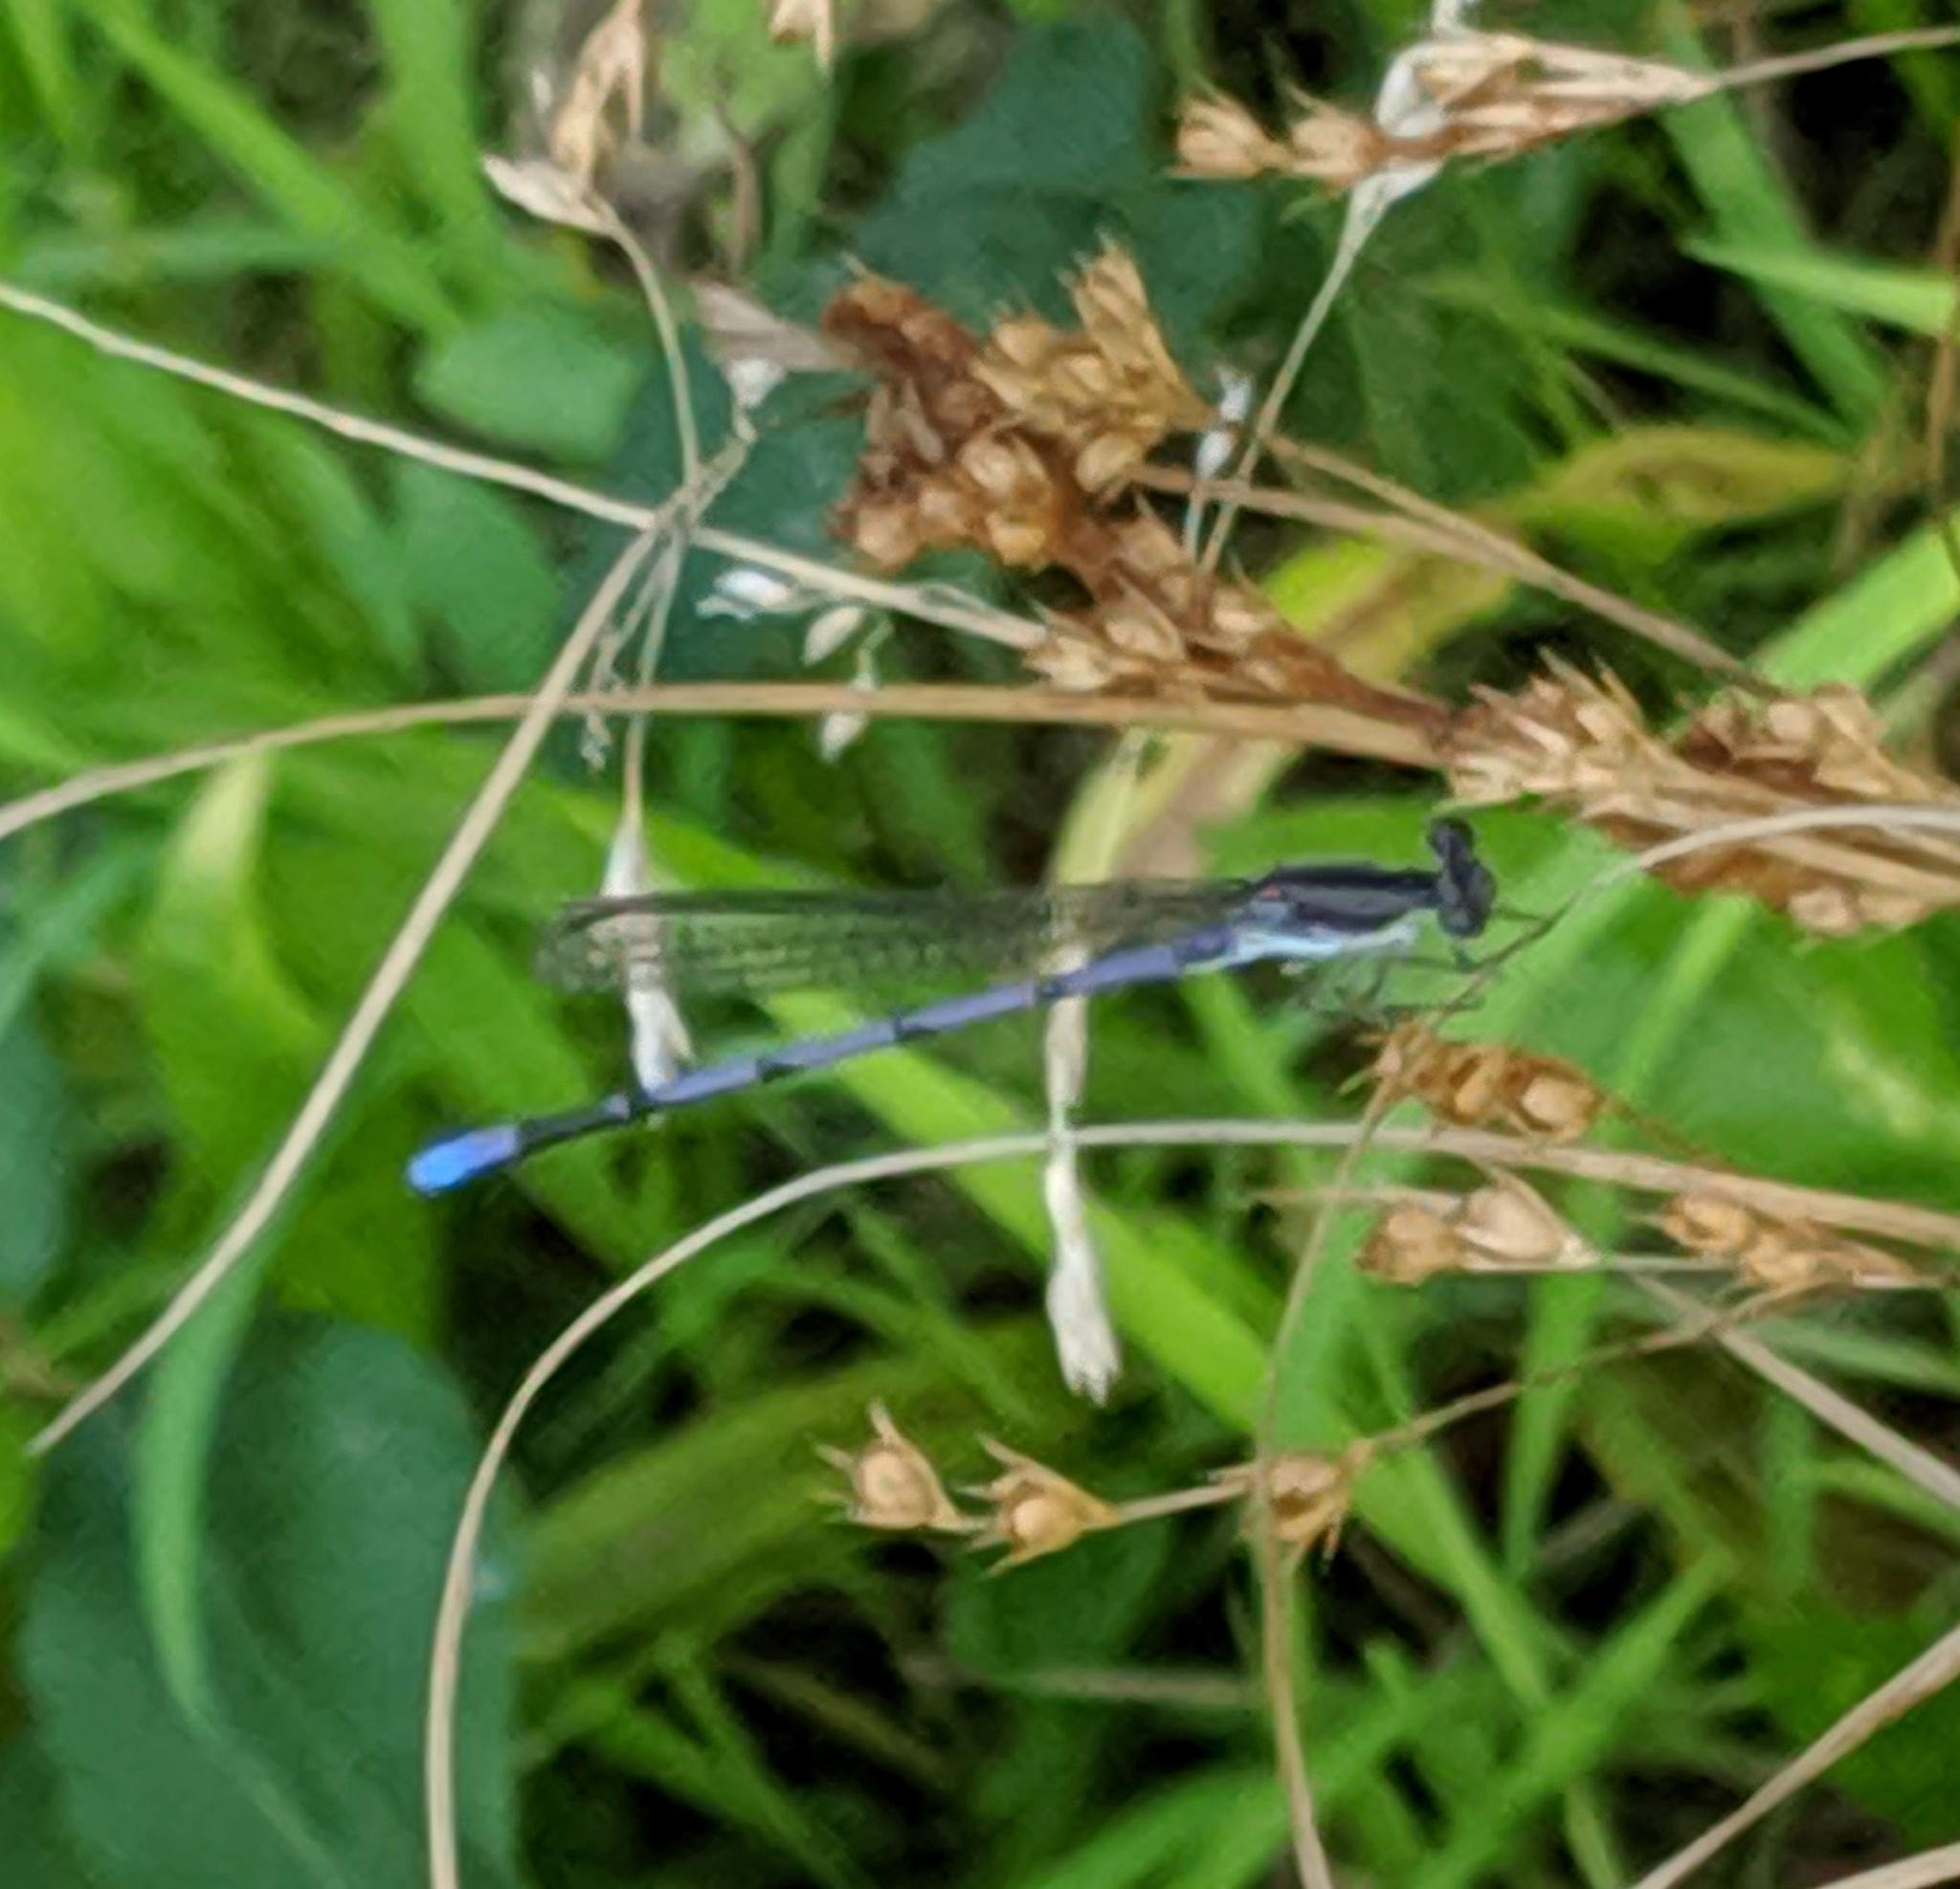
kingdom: Animalia
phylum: Arthropoda
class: Insecta
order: Odonata
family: Coenagrionidae
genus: Argia
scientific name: Argia fumipennis
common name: Variable dancer
